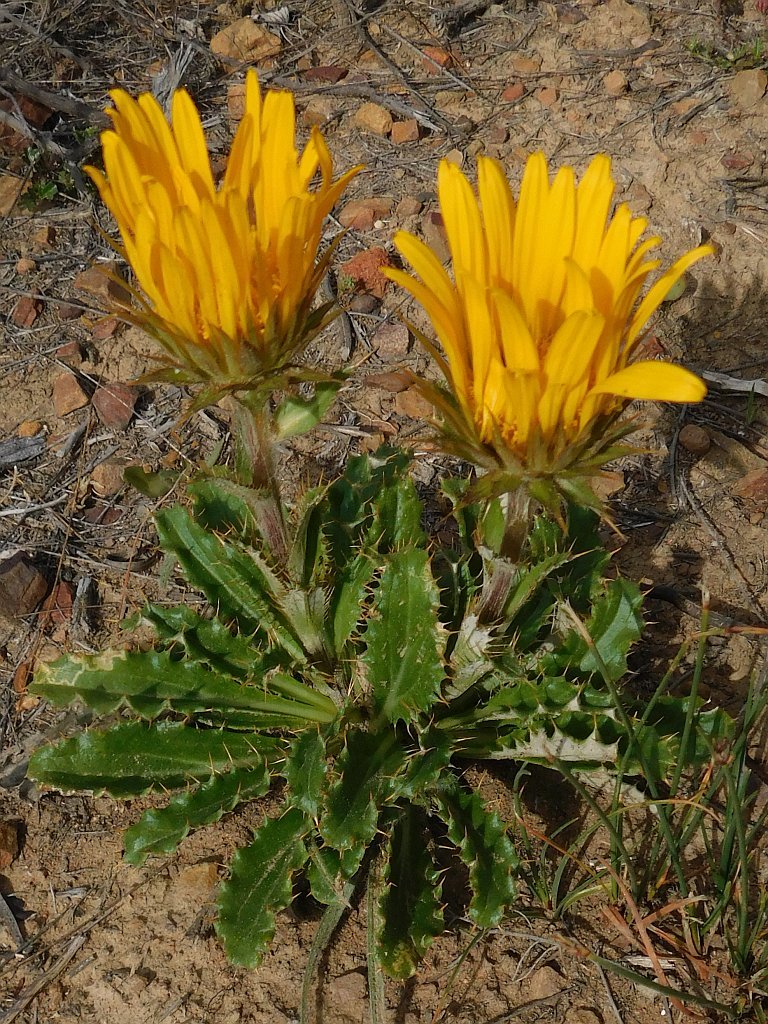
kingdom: Plantae
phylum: Tracheophyta
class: Magnoliopsida
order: Asterales
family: Asteraceae
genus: Berkheya
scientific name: Berkheya armata
